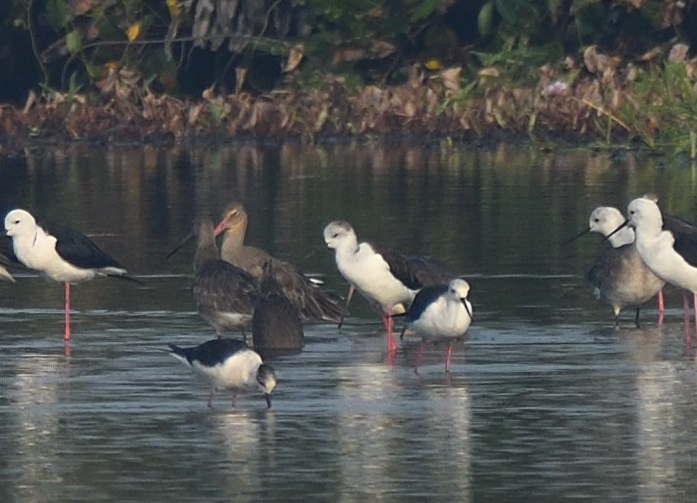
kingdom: Animalia
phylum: Chordata
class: Aves
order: Charadriiformes
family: Scolopacidae
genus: Limosa
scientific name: Limosa limosa
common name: Black-tailed godwit
